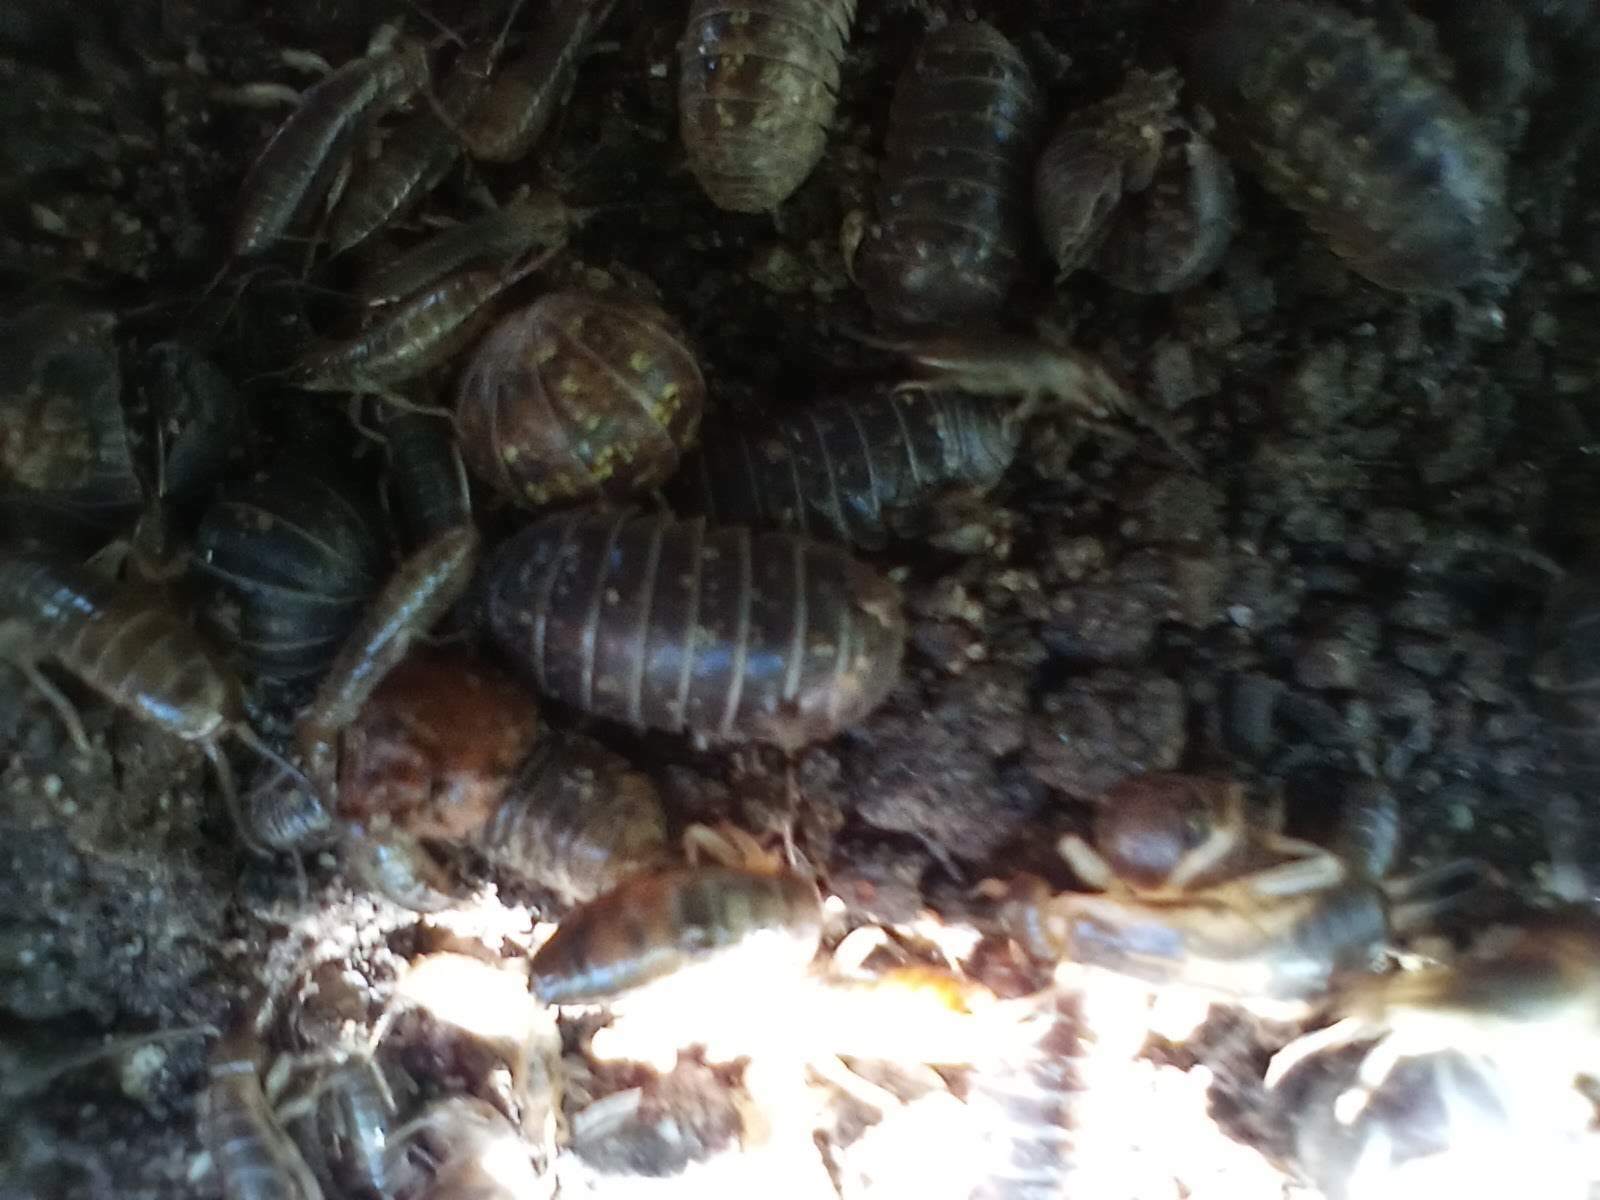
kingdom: Animalia
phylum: Arthropoda
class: Malacostraca
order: Isopoda
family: Armadillidiidae
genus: Armadillidium
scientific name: Armadillidium vulgare
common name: Common pill woodlouse
